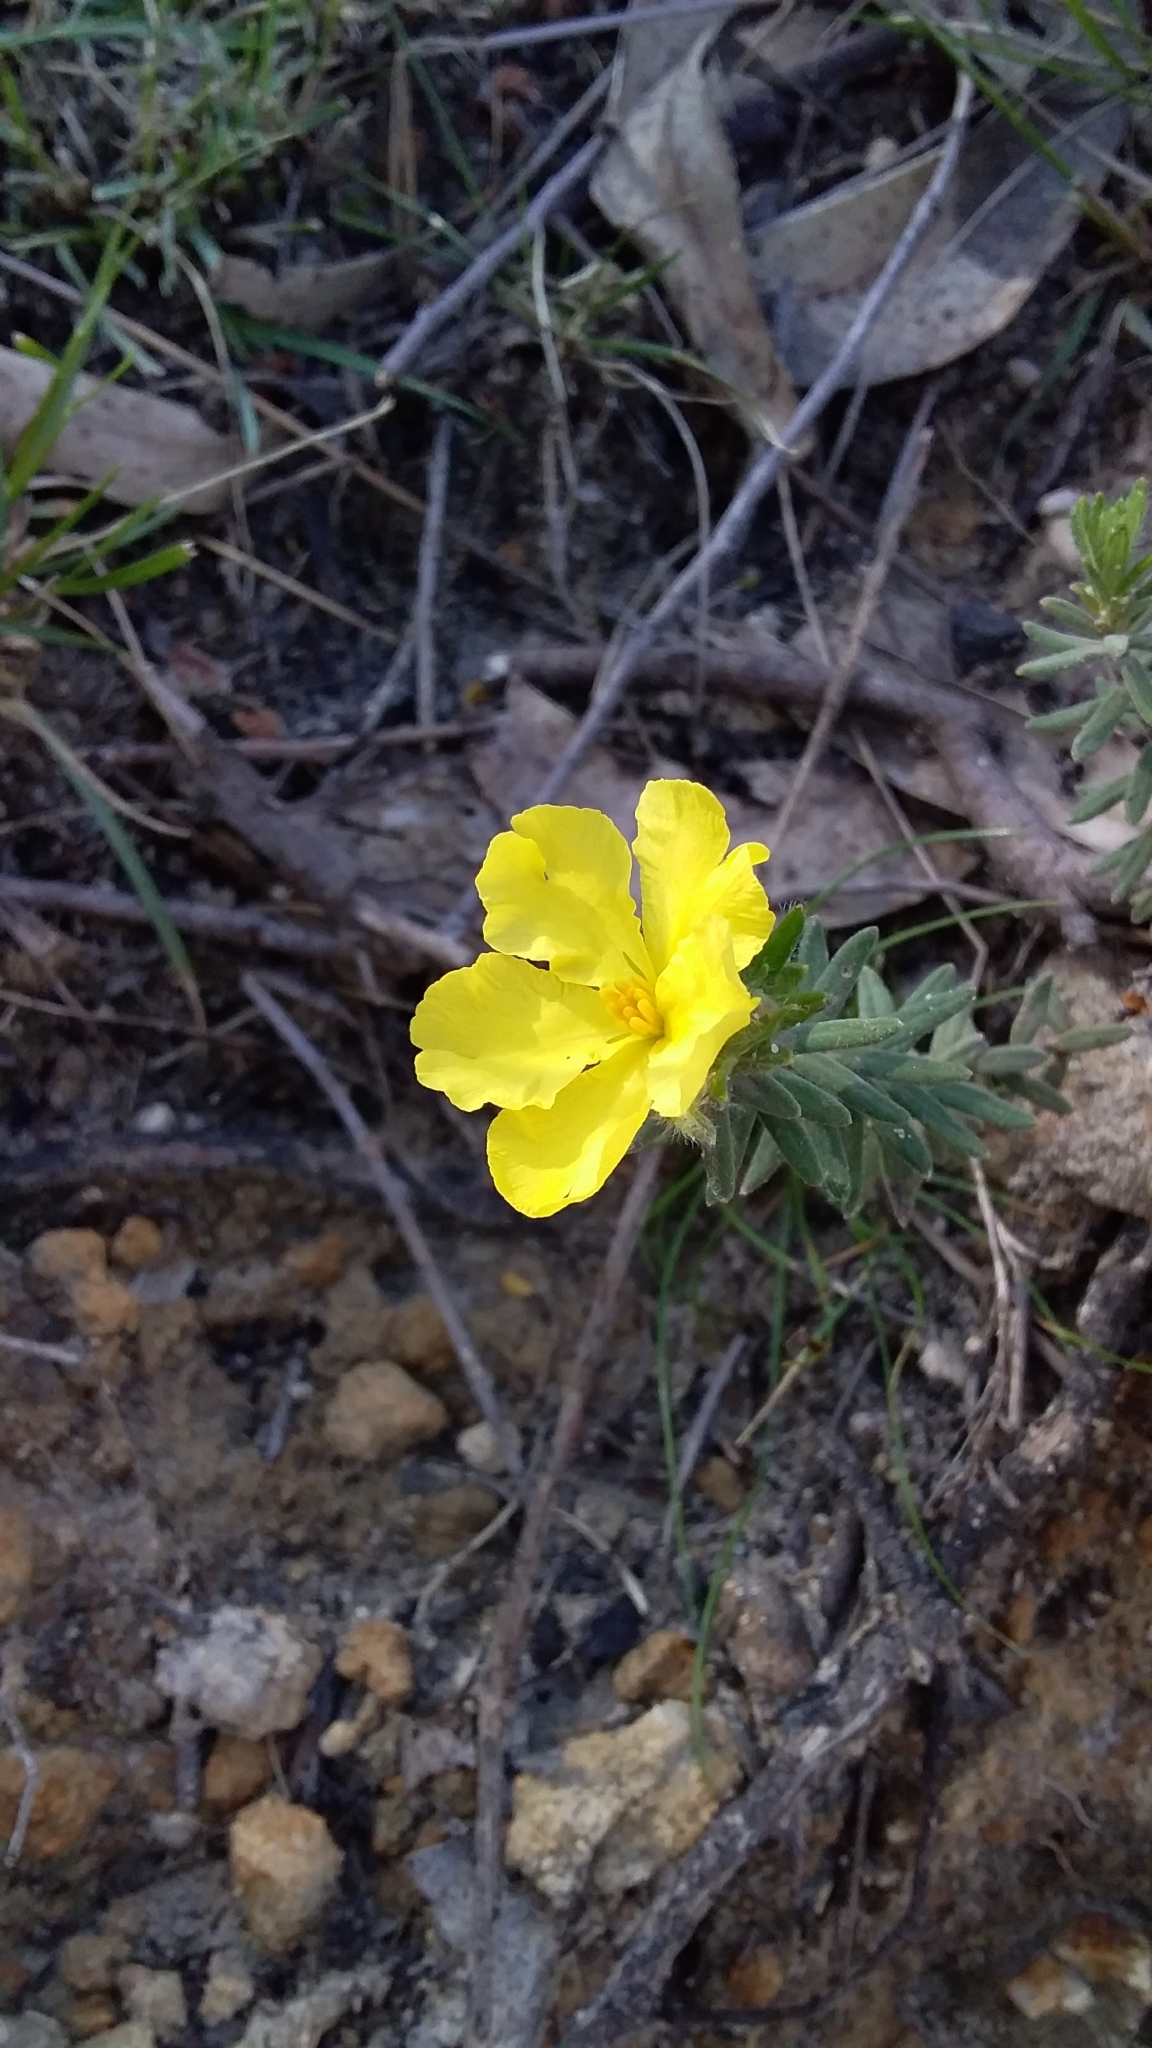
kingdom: Plantae
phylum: Tracheophyta
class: Magnoliopsida
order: Dilleniales
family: Dilleniaceae
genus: Hibbertia
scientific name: Hibbertia crinita
